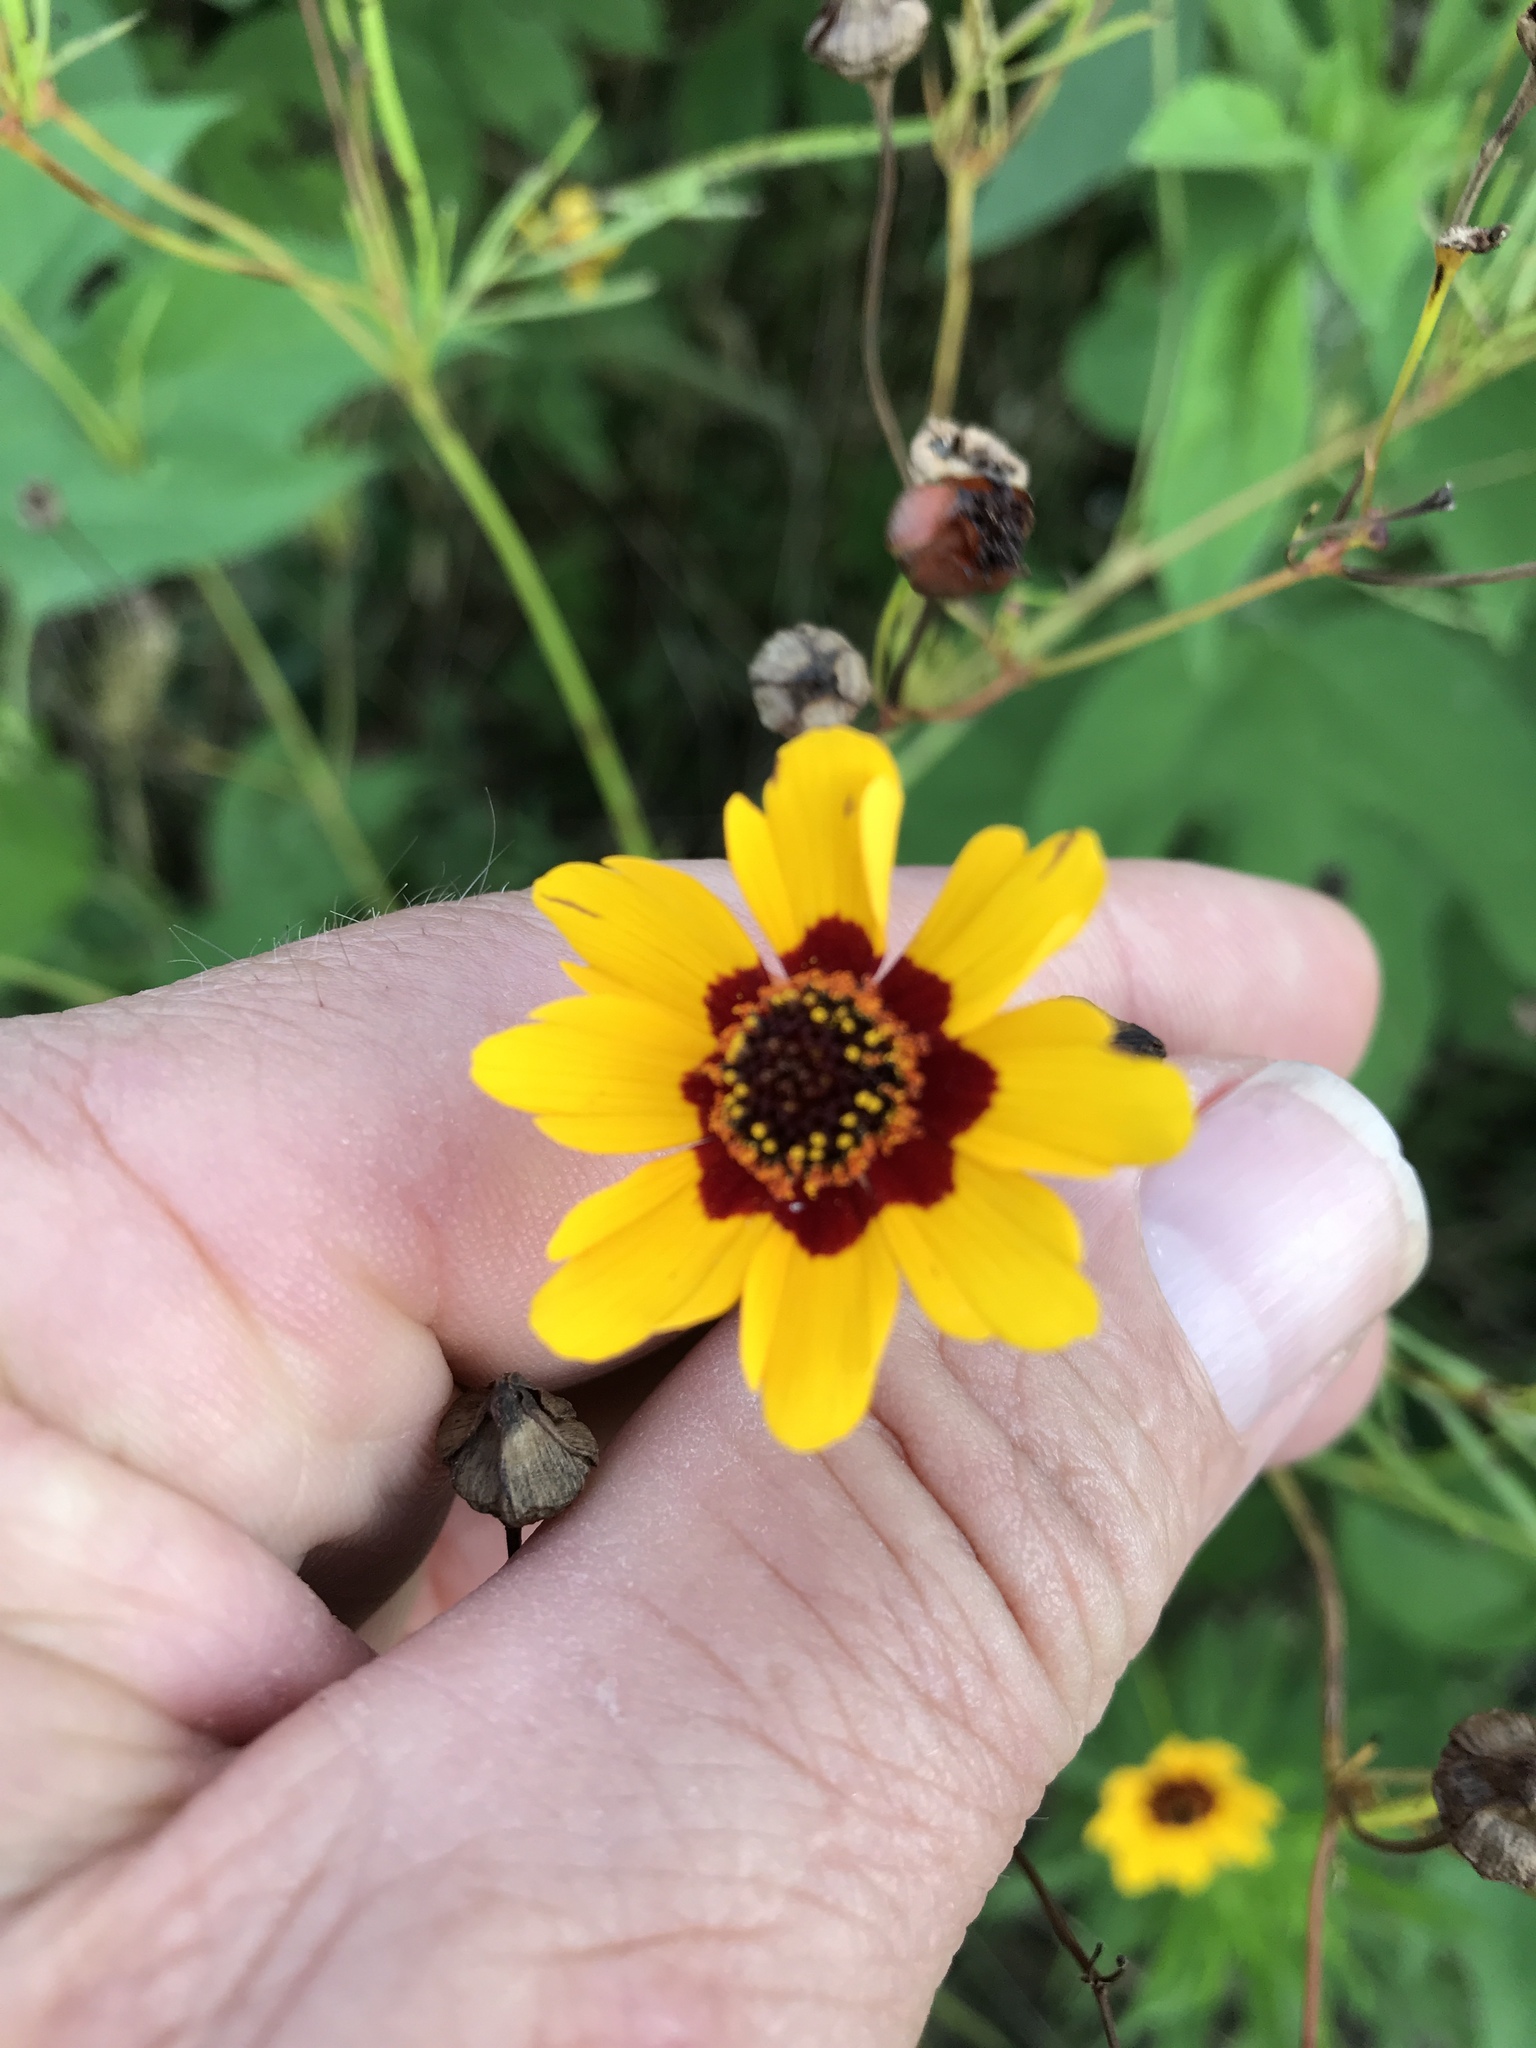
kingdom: Plantae
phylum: Tracheophyta
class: Magnoliopsida
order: Asterales
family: Asteraceae
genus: Coreopsis
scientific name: Coreopsis tinctoria
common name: Garden tickseed
